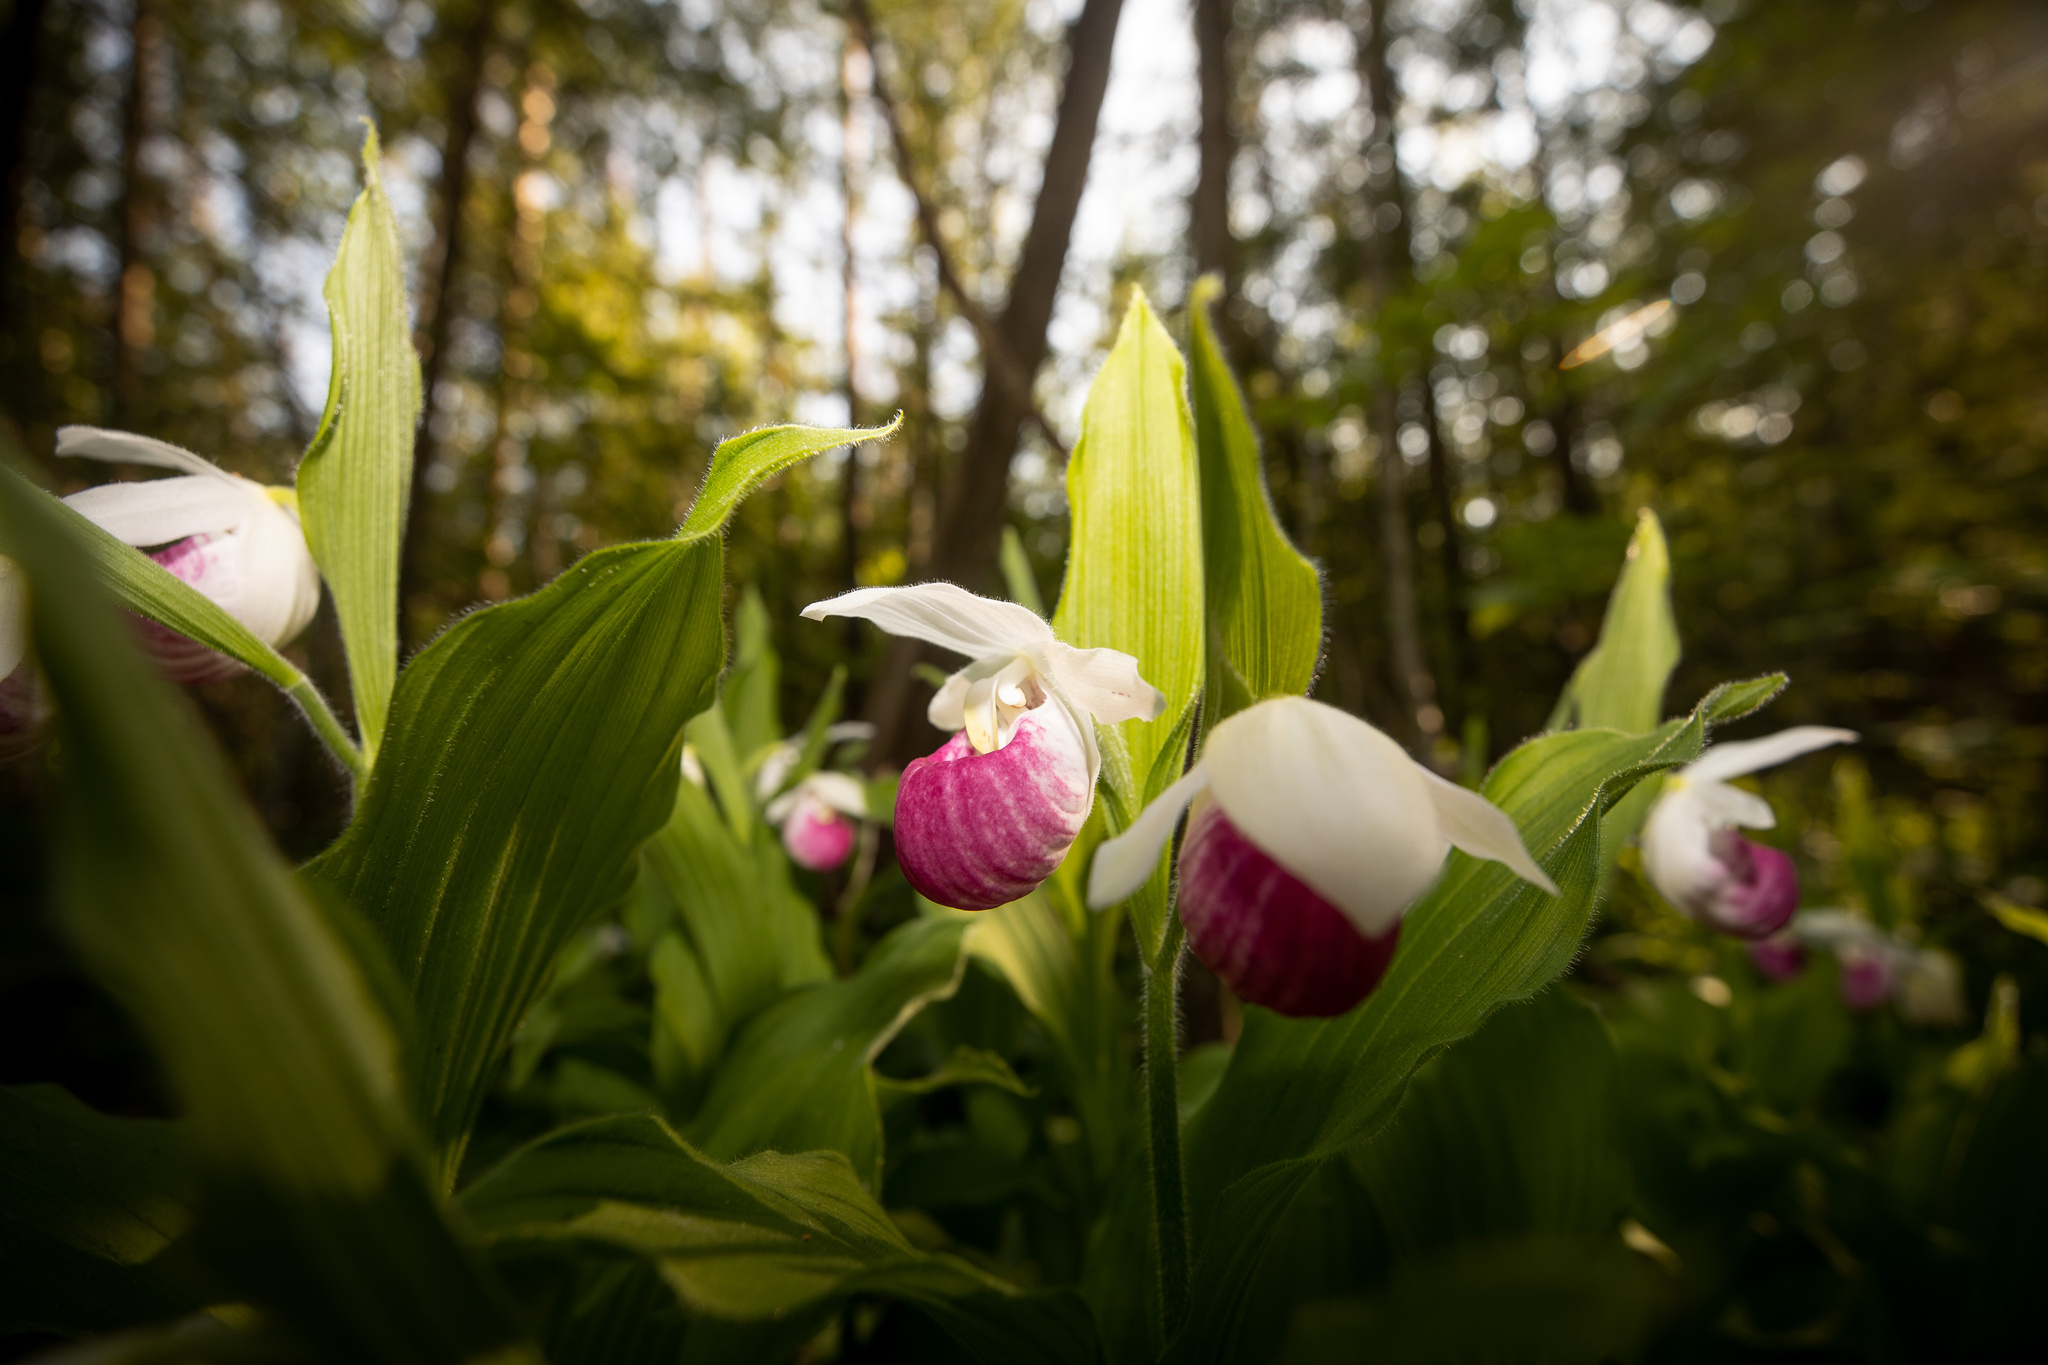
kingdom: Plantae
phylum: Tracheophyta
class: Liliopsida
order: Asparagales
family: Orchidaceae
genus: Cypripedium
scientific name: Cypripedium reginae
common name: Queen lady's-slipper
